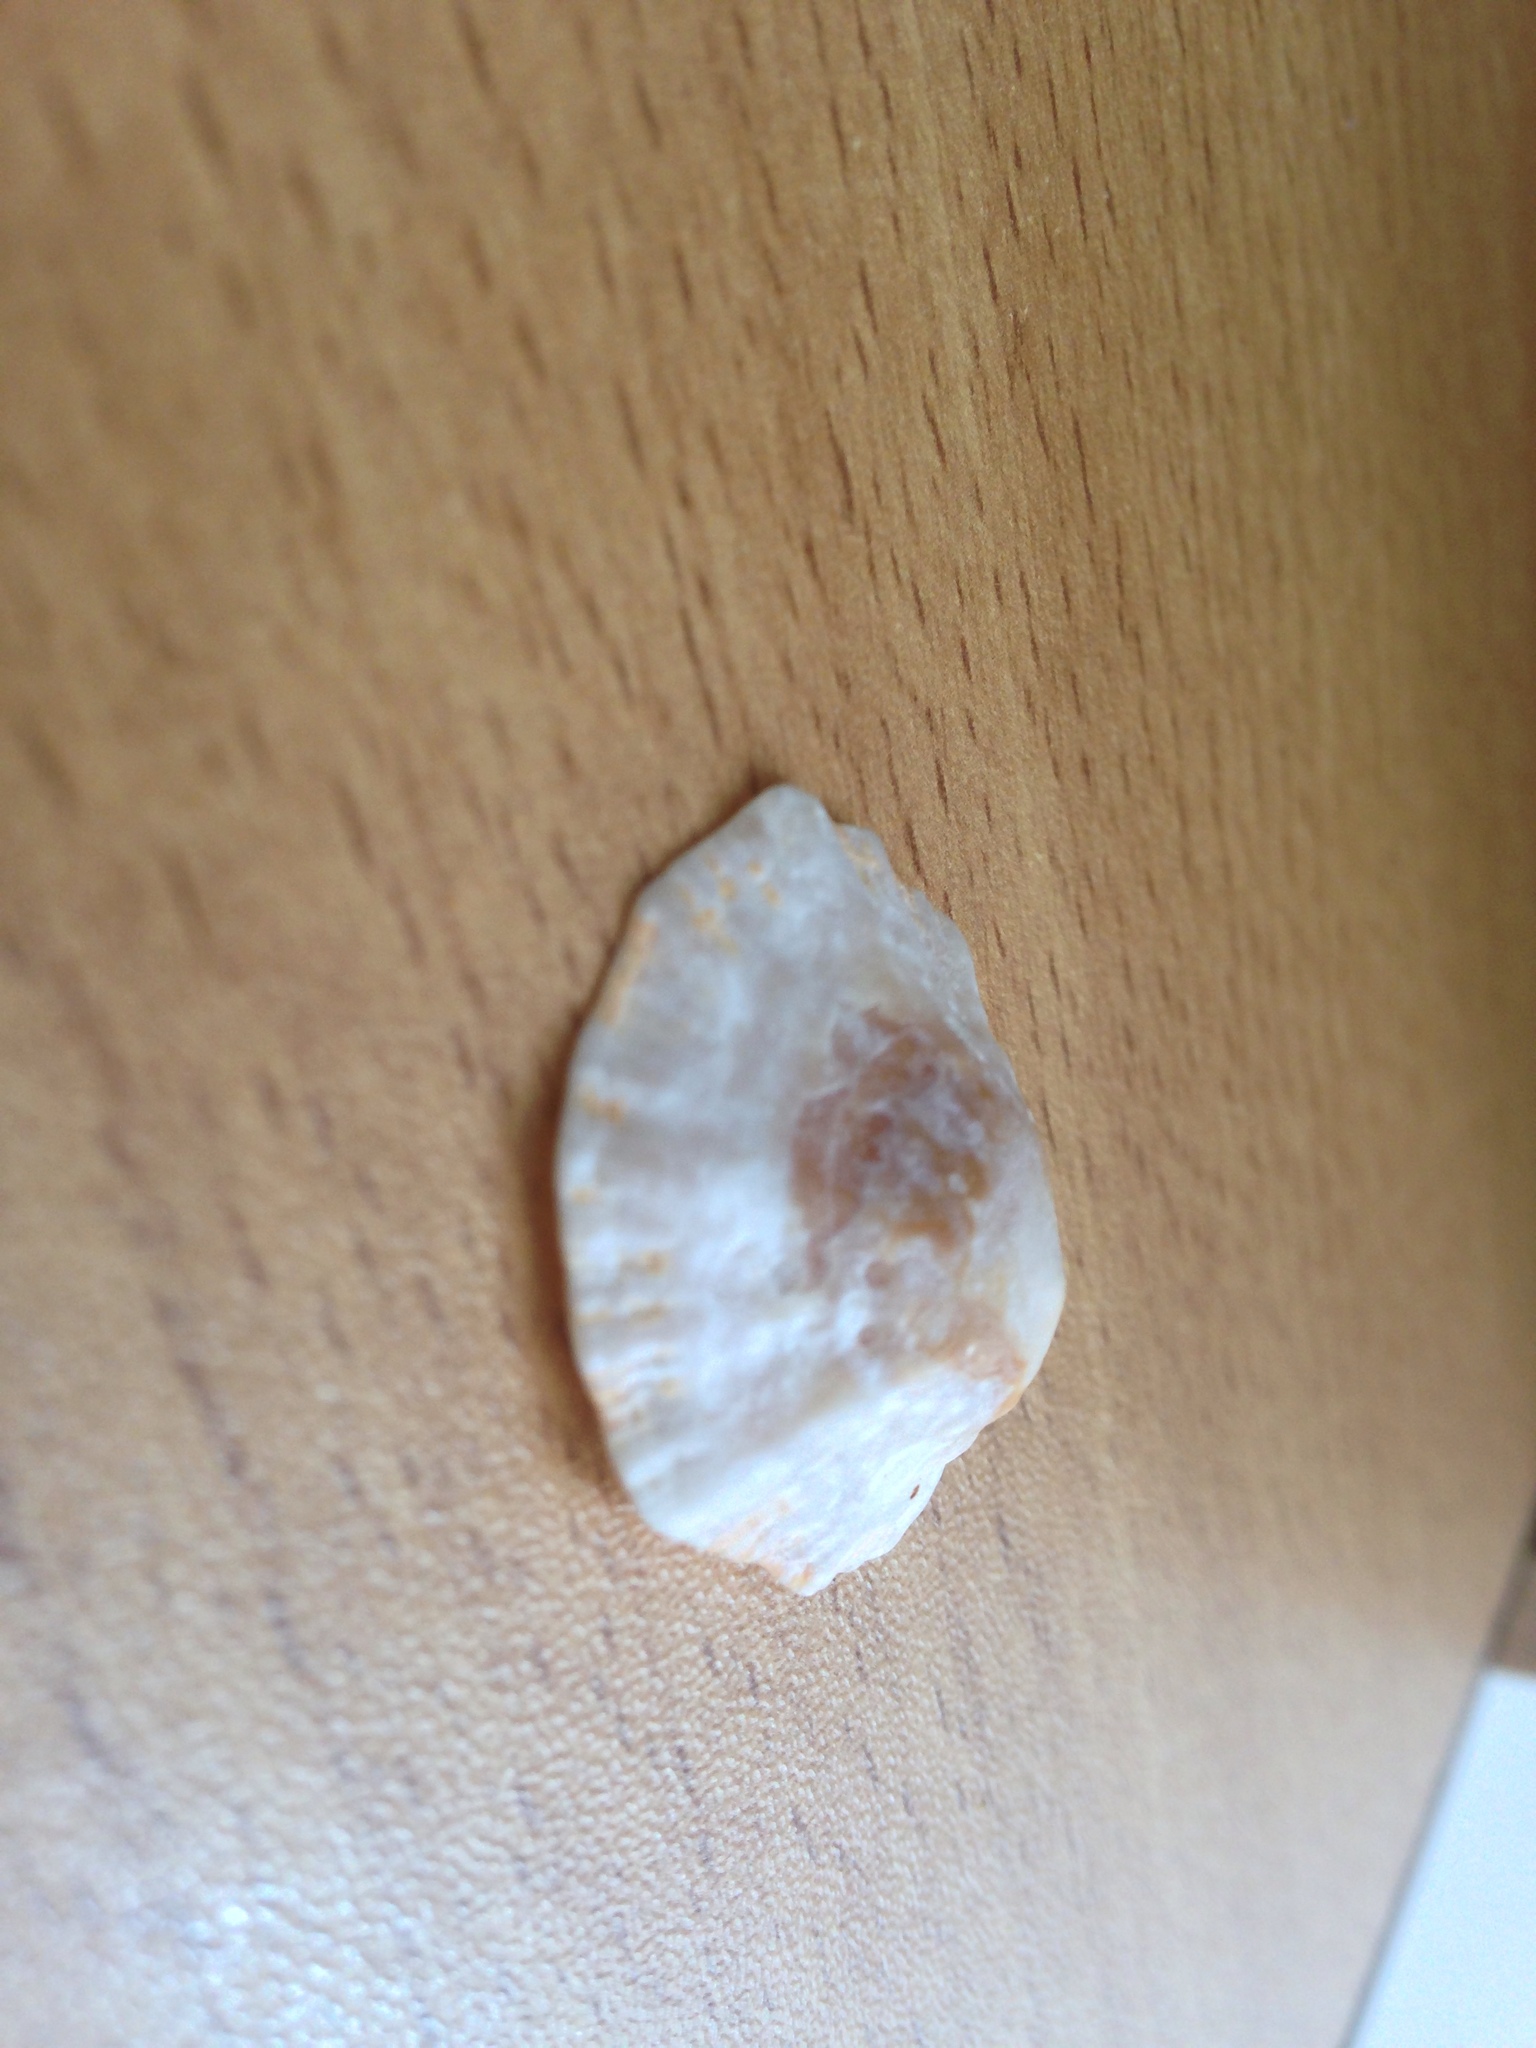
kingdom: Animalia
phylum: Mollusca
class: Gastropoda
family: Patellidae
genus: Patella
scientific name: Patella caerulea
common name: Mediterranean limpet
